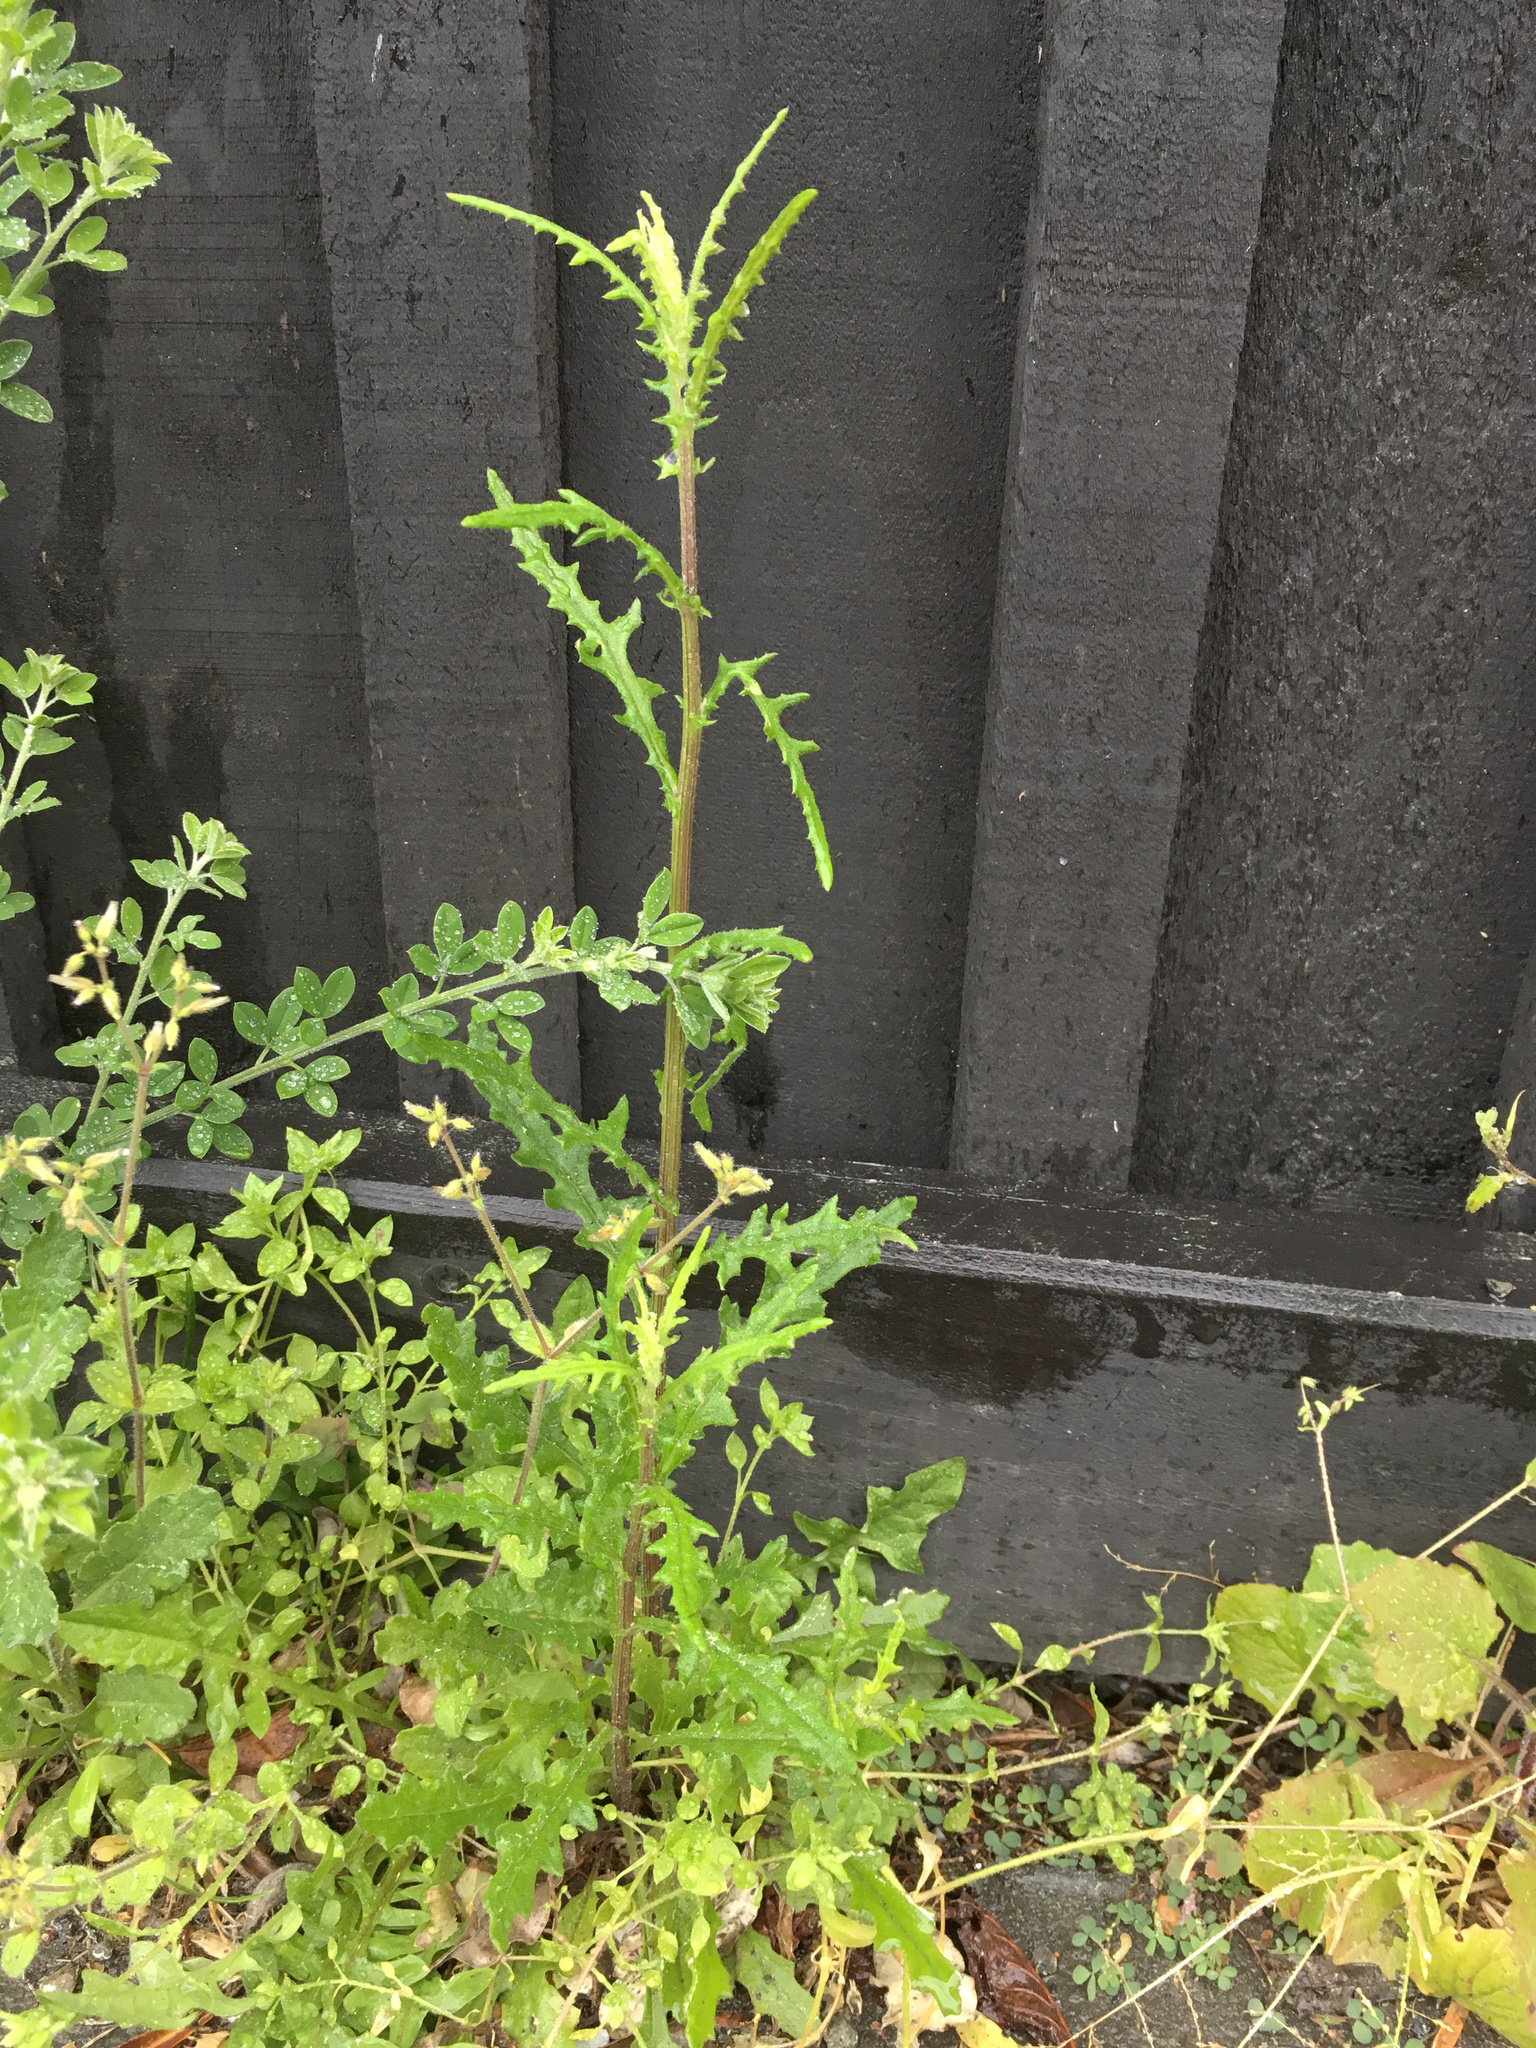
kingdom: Plantae
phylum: Tracheophyta
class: Magnoliopsida
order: Asterales
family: Asteraceae
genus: Senecio
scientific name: Senecio hispidulus
